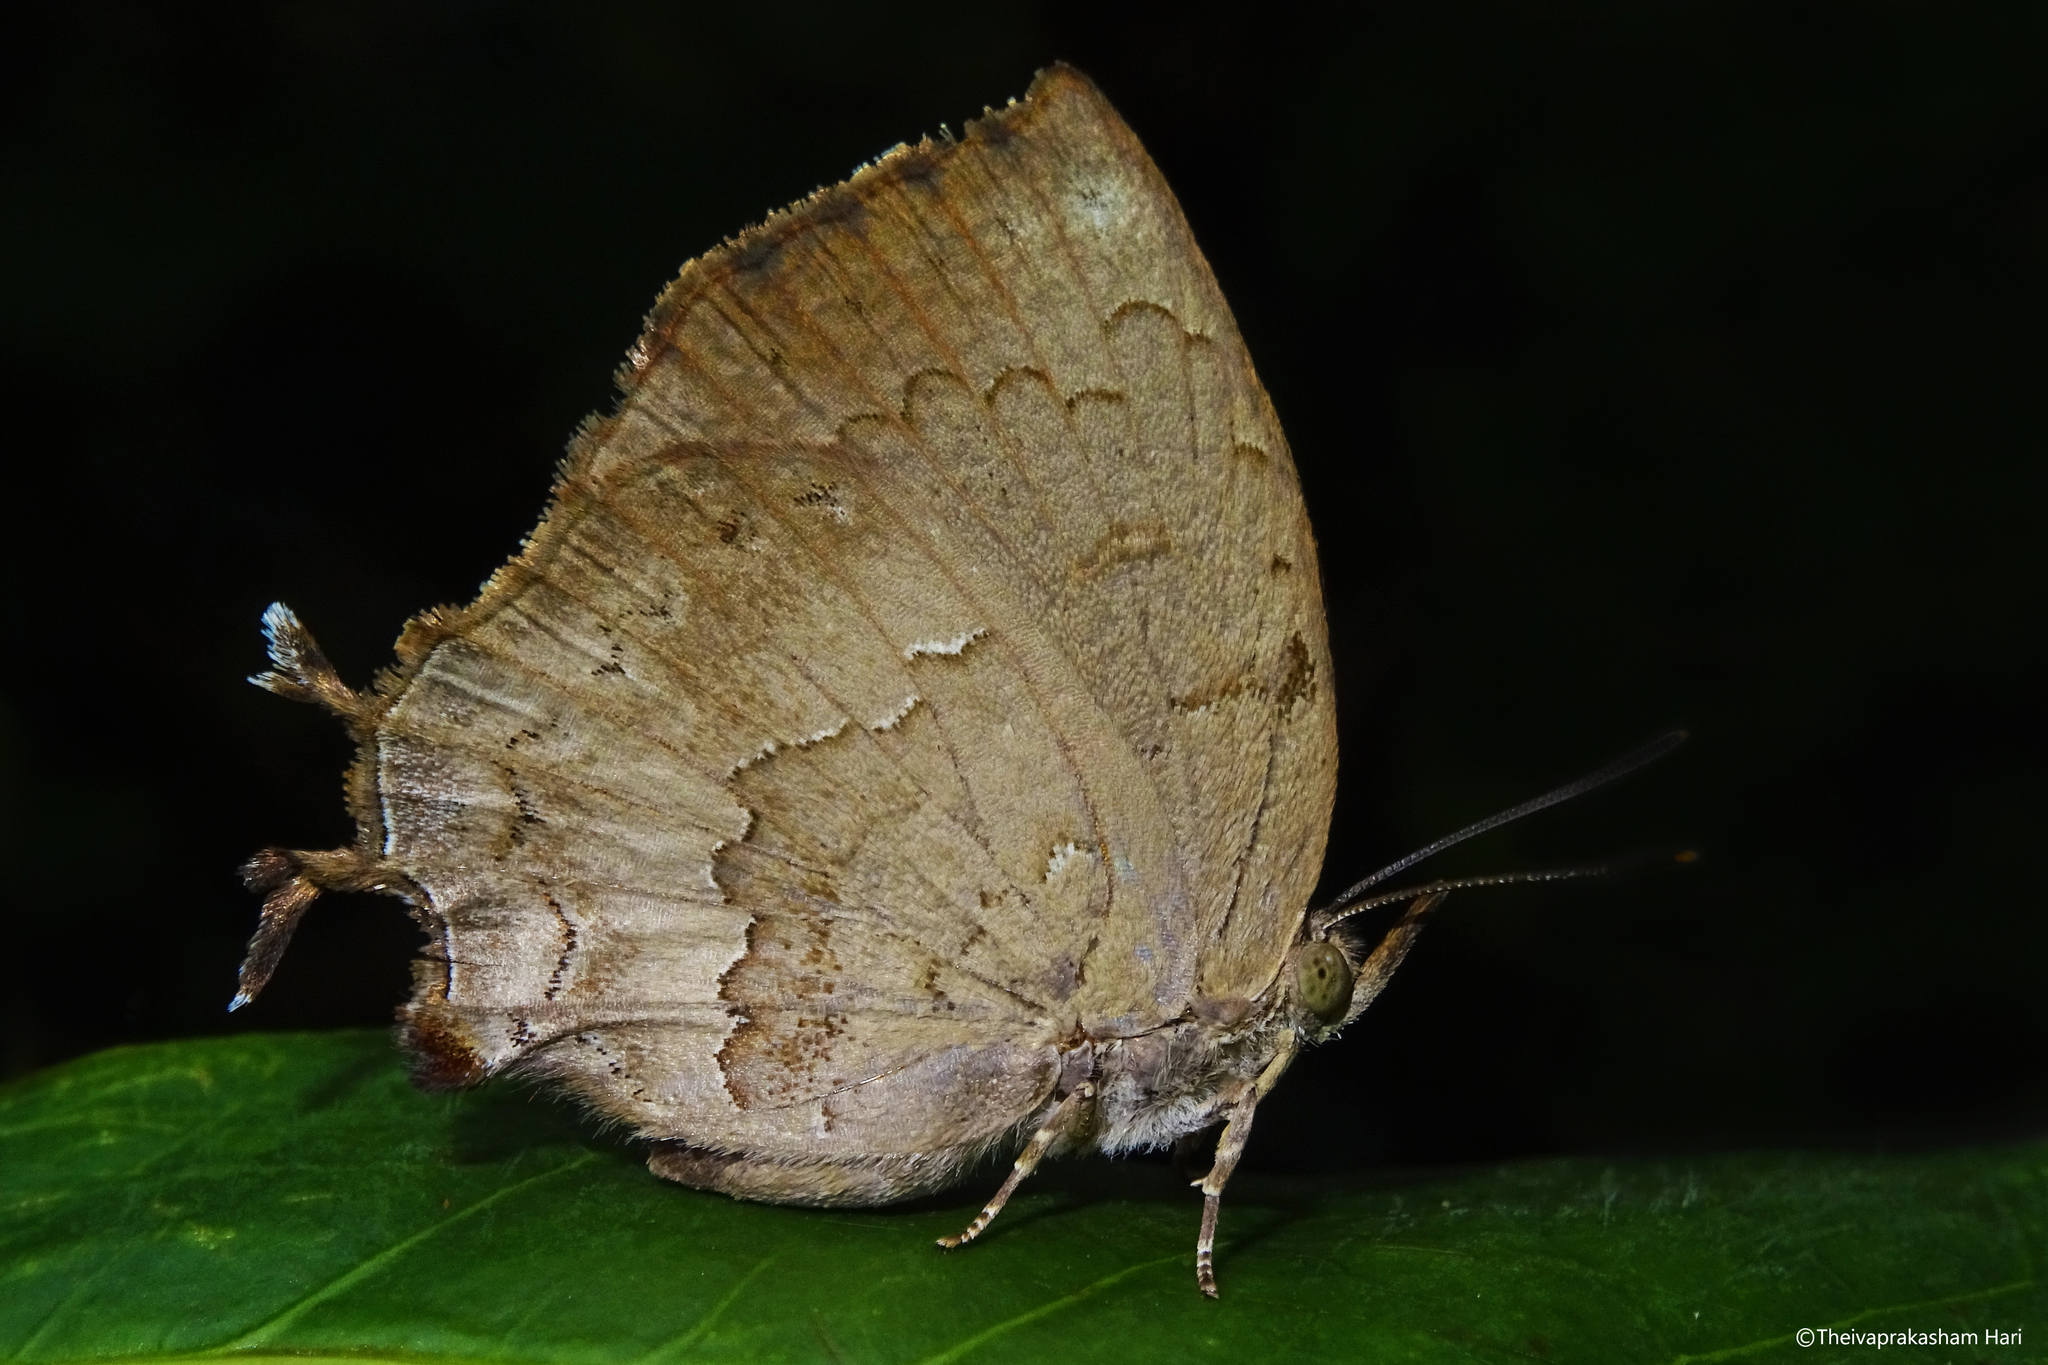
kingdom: Animalia
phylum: Arthropoda
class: Insecta
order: Lepidoptera
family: Lycaenidae
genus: Surendra
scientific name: Surendra quercetorum
